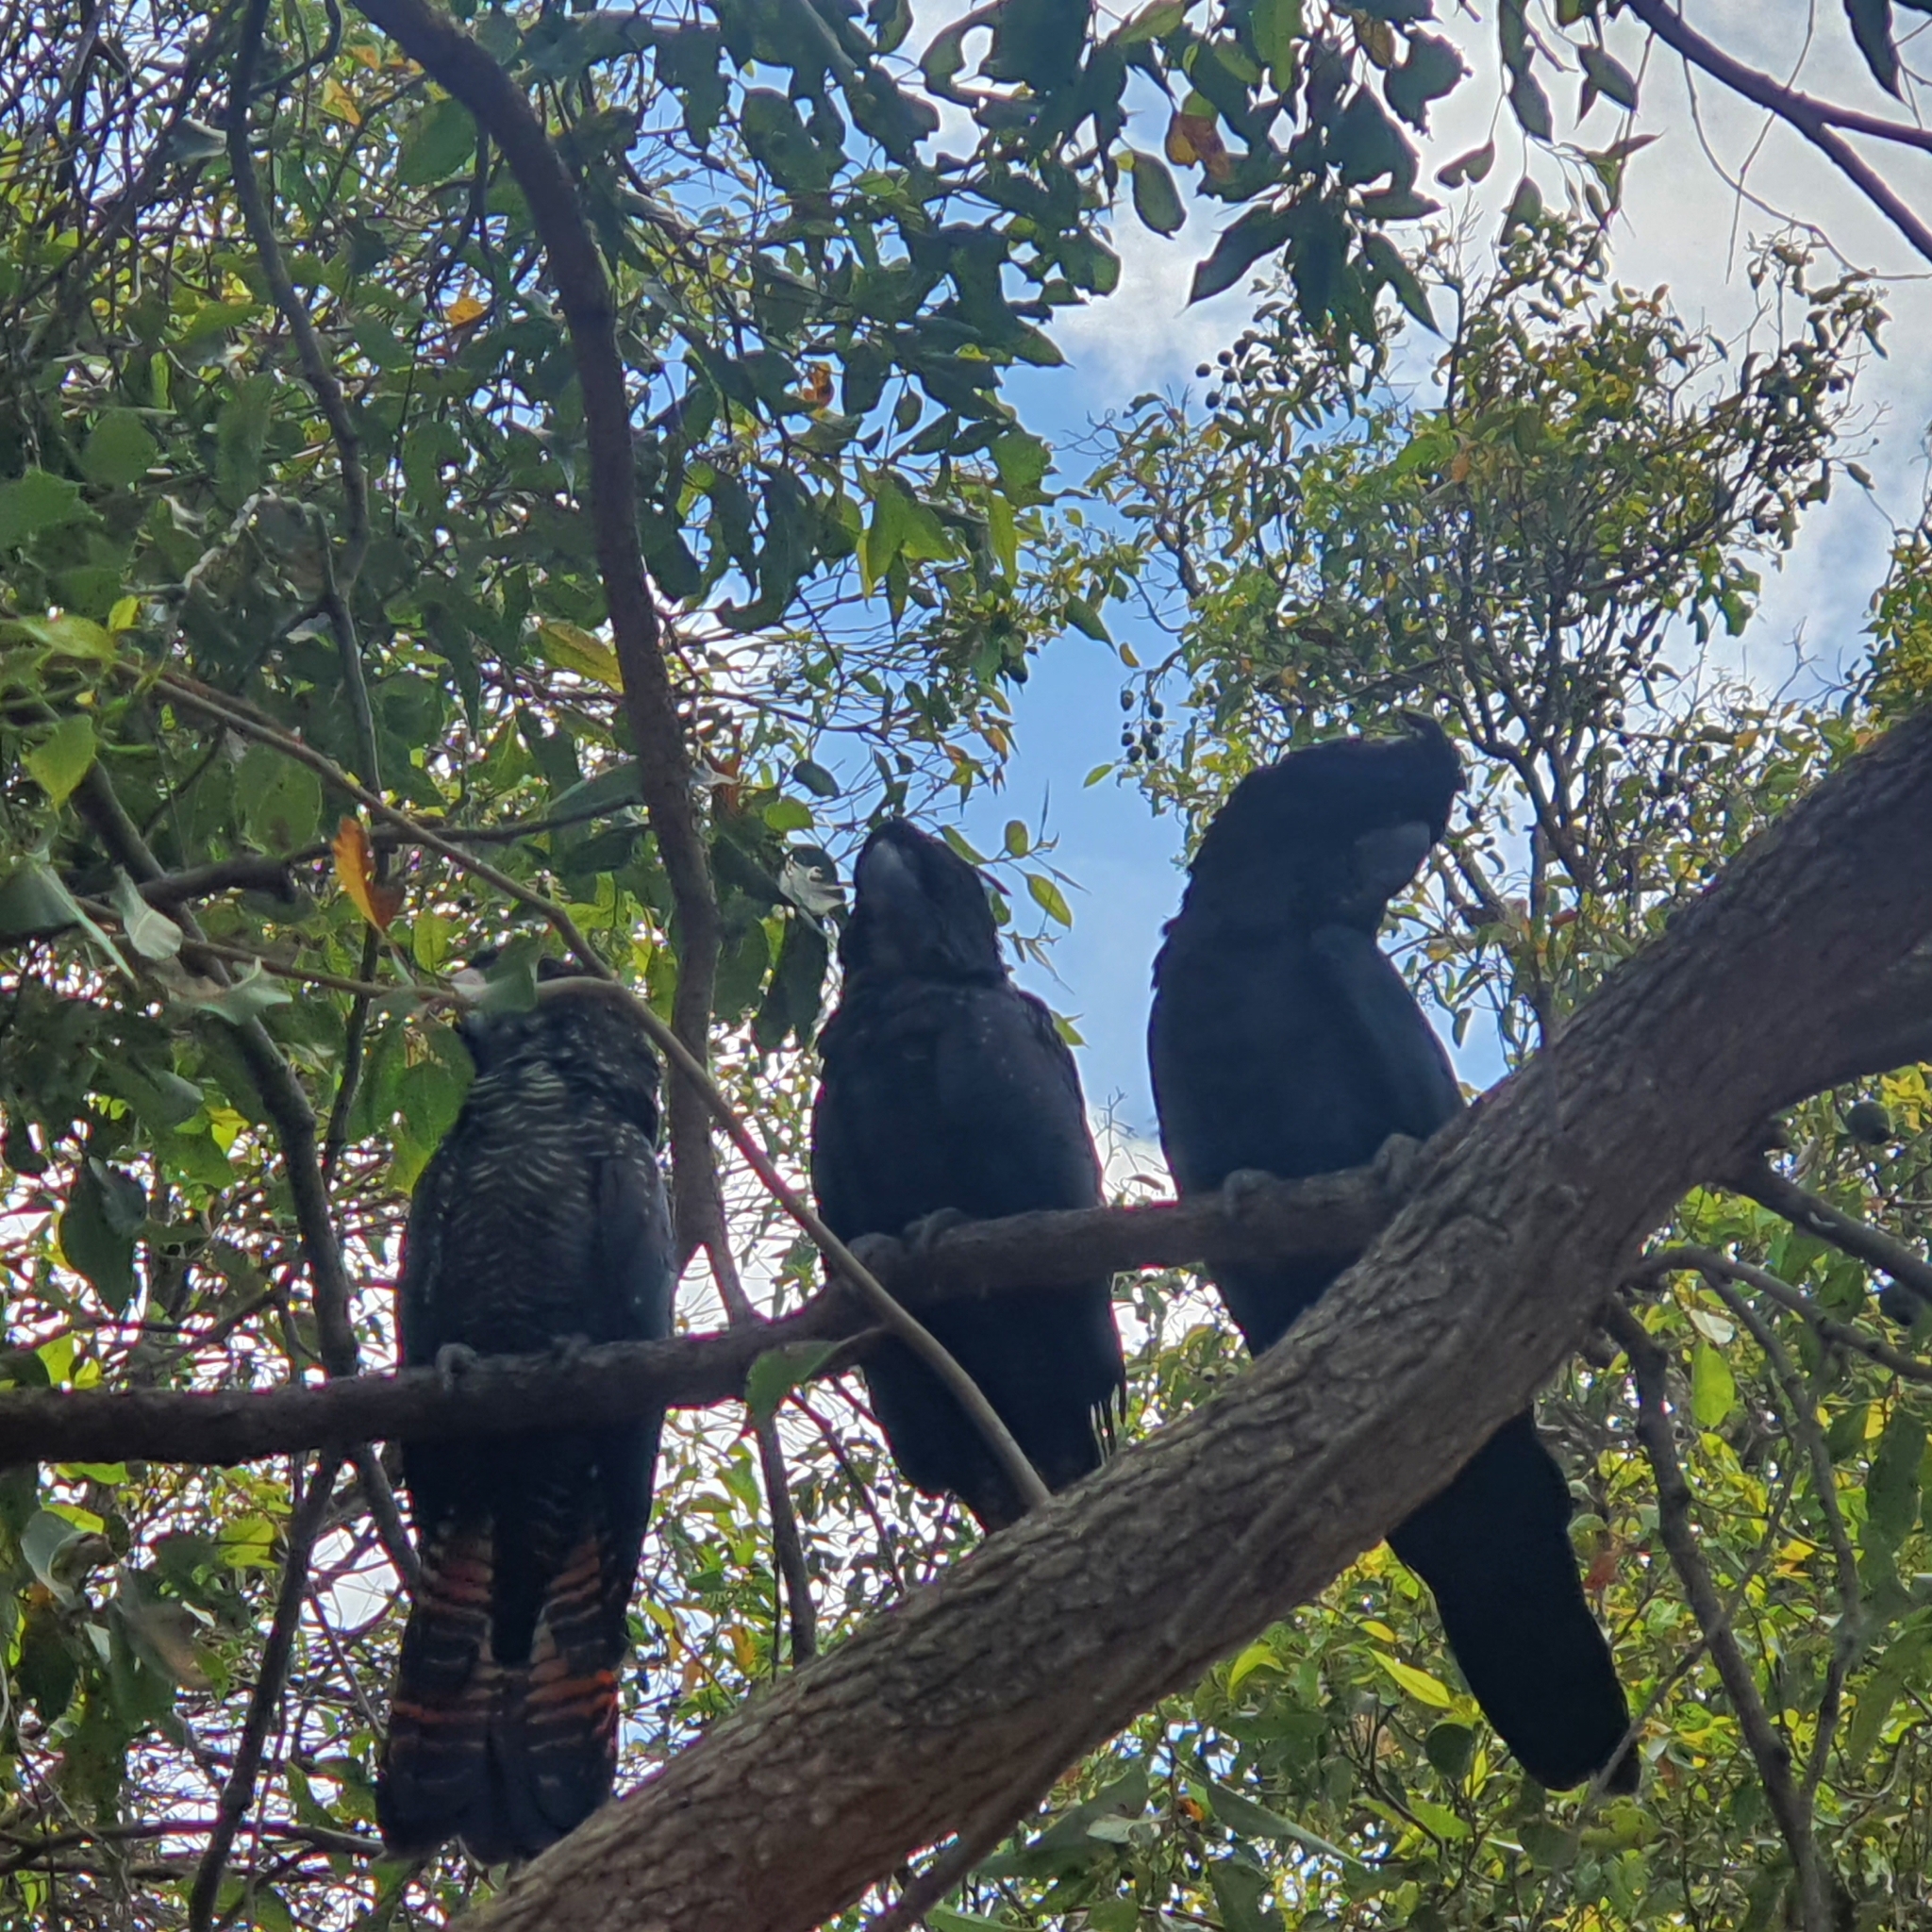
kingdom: Animalia
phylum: Chordata
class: Aves
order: Psittaciformes
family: Psittacidae
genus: Calyptorhynchus
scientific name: Calyptorhynchus banksii
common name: Red-tailed black cockatoo
